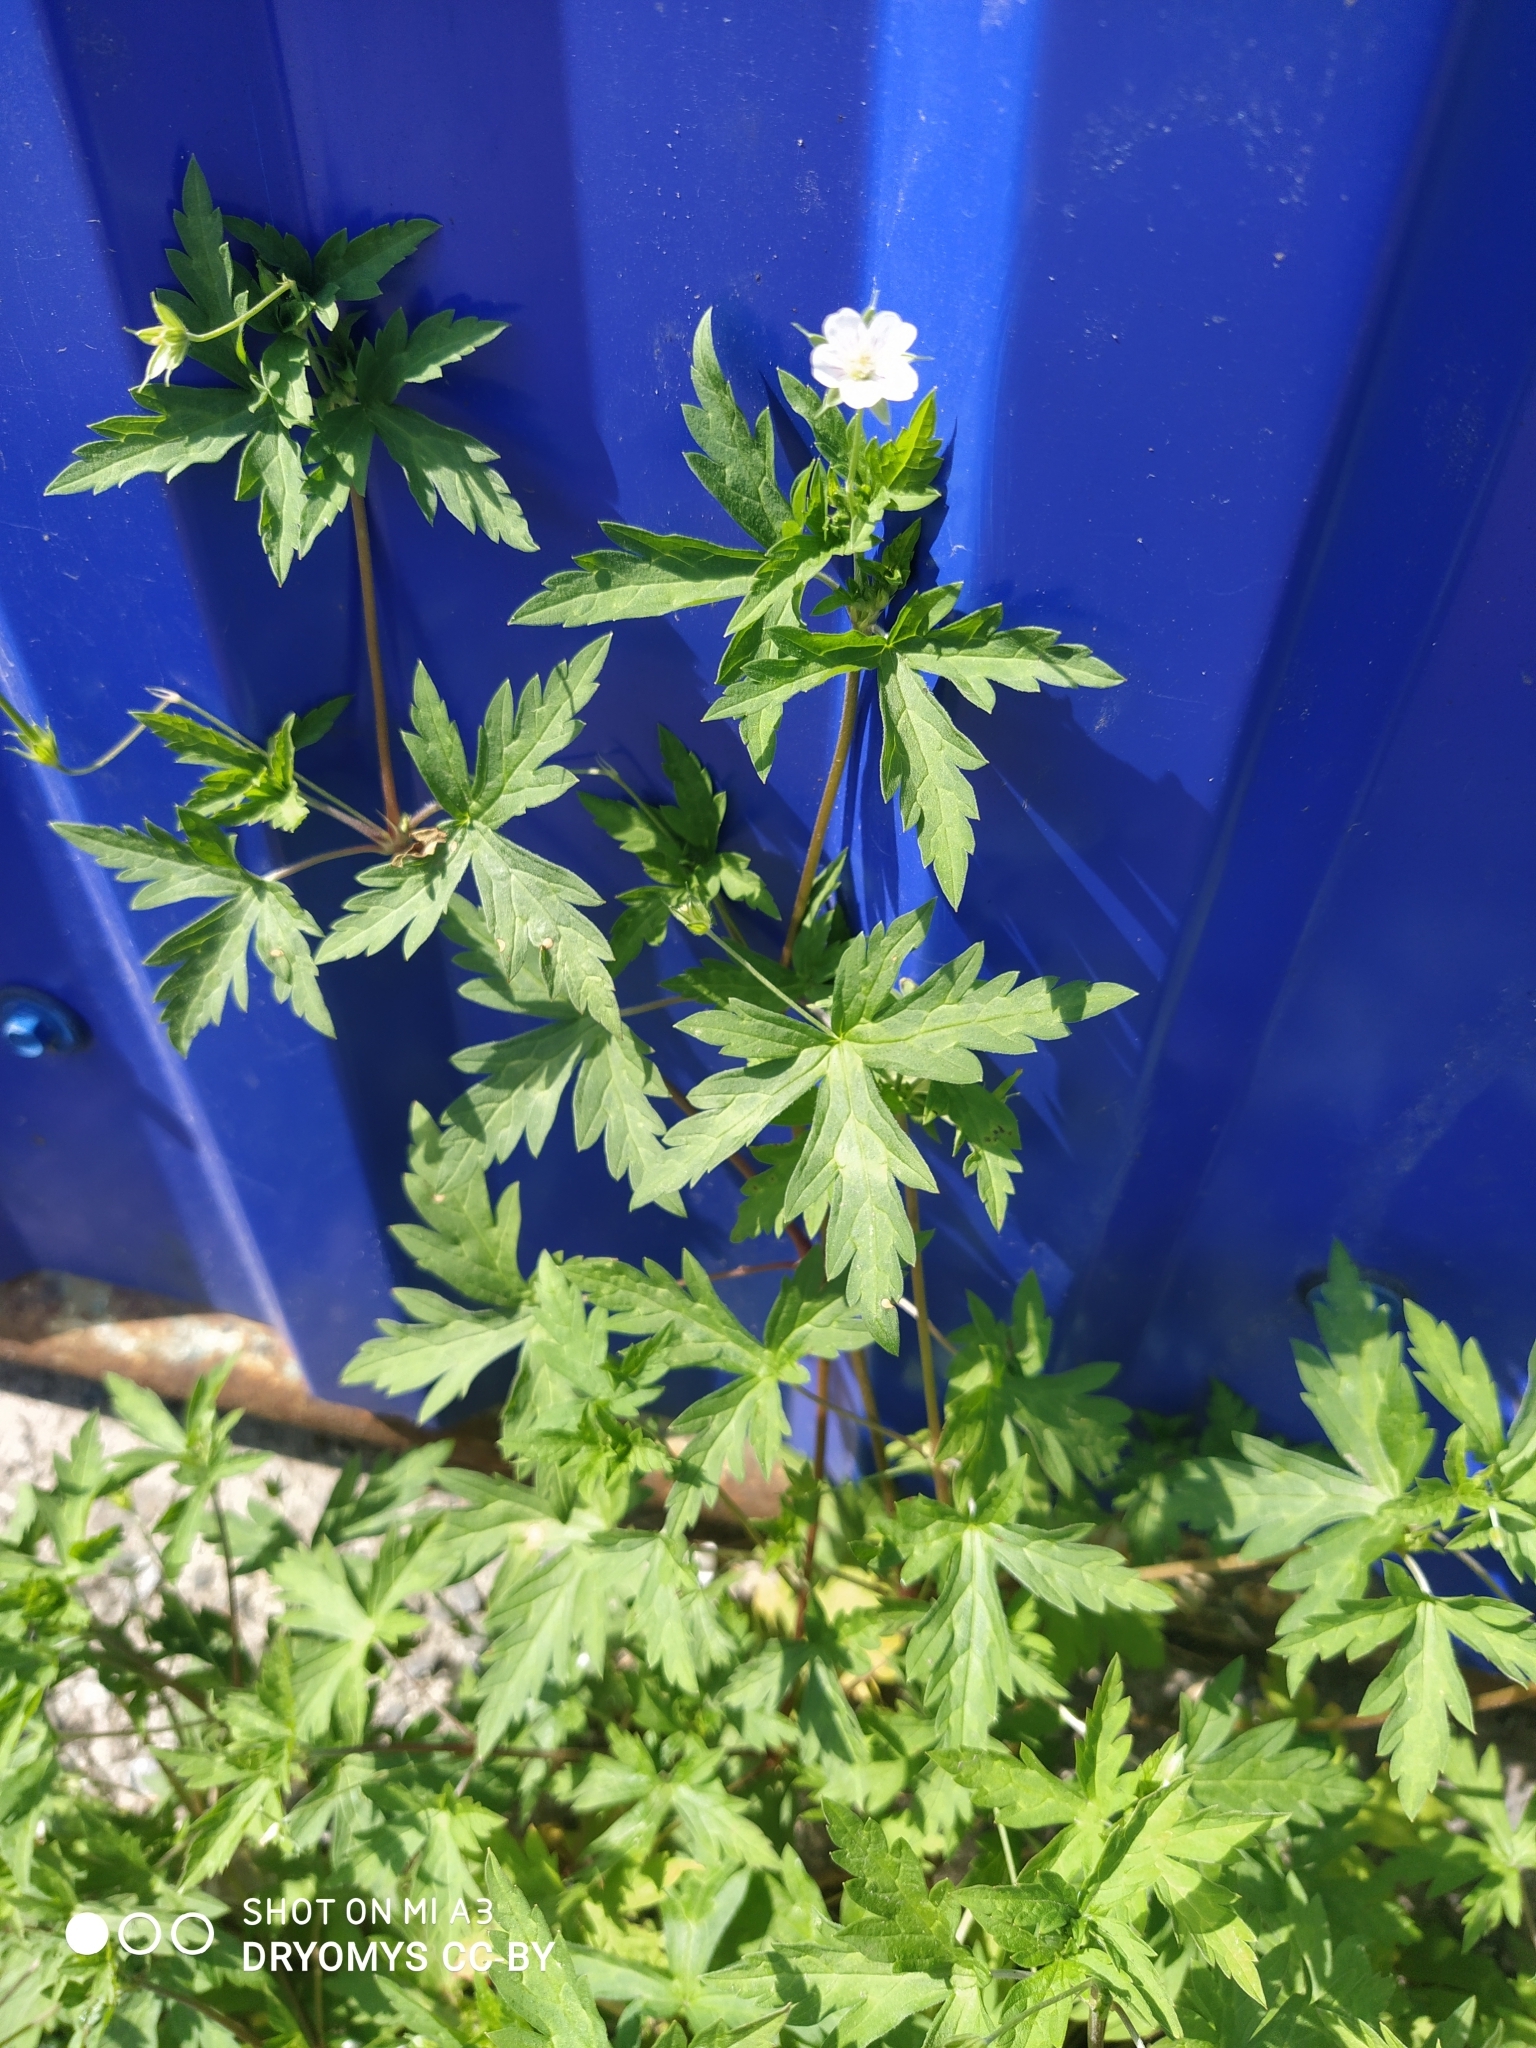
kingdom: Plantae
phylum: Tracheophyta
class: Magnoliopsida
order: Geraniales
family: Geraniaceae
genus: Geranium
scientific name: Geranium sibiricum
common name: Siberian crane's-bill
